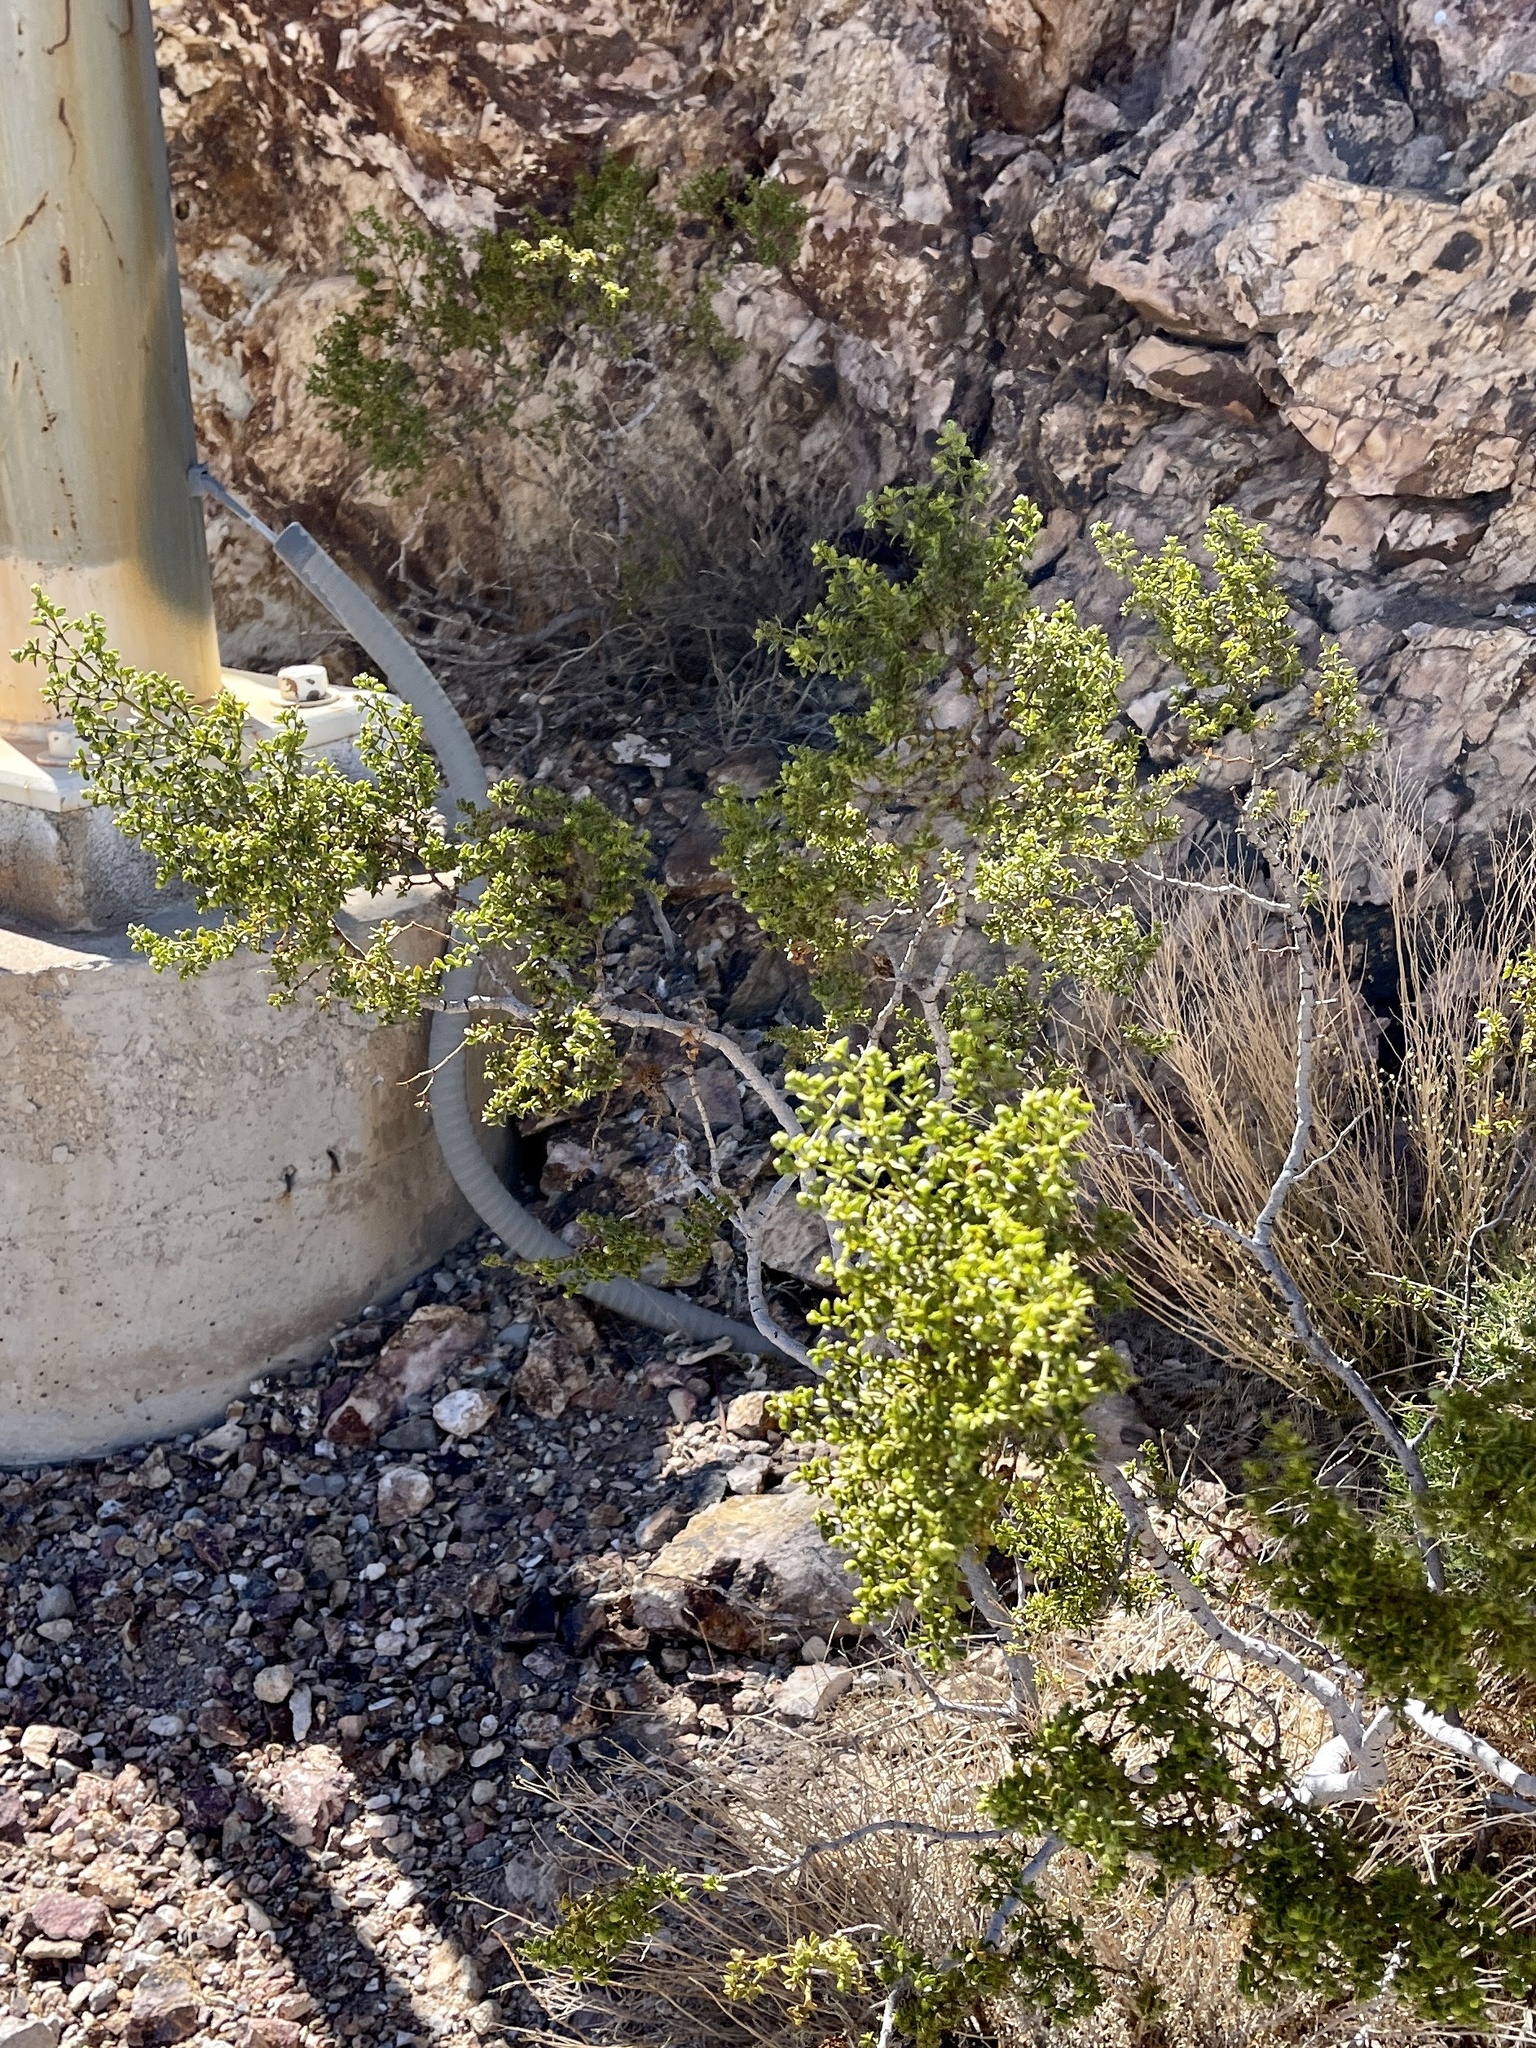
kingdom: Plantae
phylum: Tracheophyta
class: Magnoliopsida
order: Zygophyllales
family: Zygophyllaceae
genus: Larrea
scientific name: Larrea tridentata
